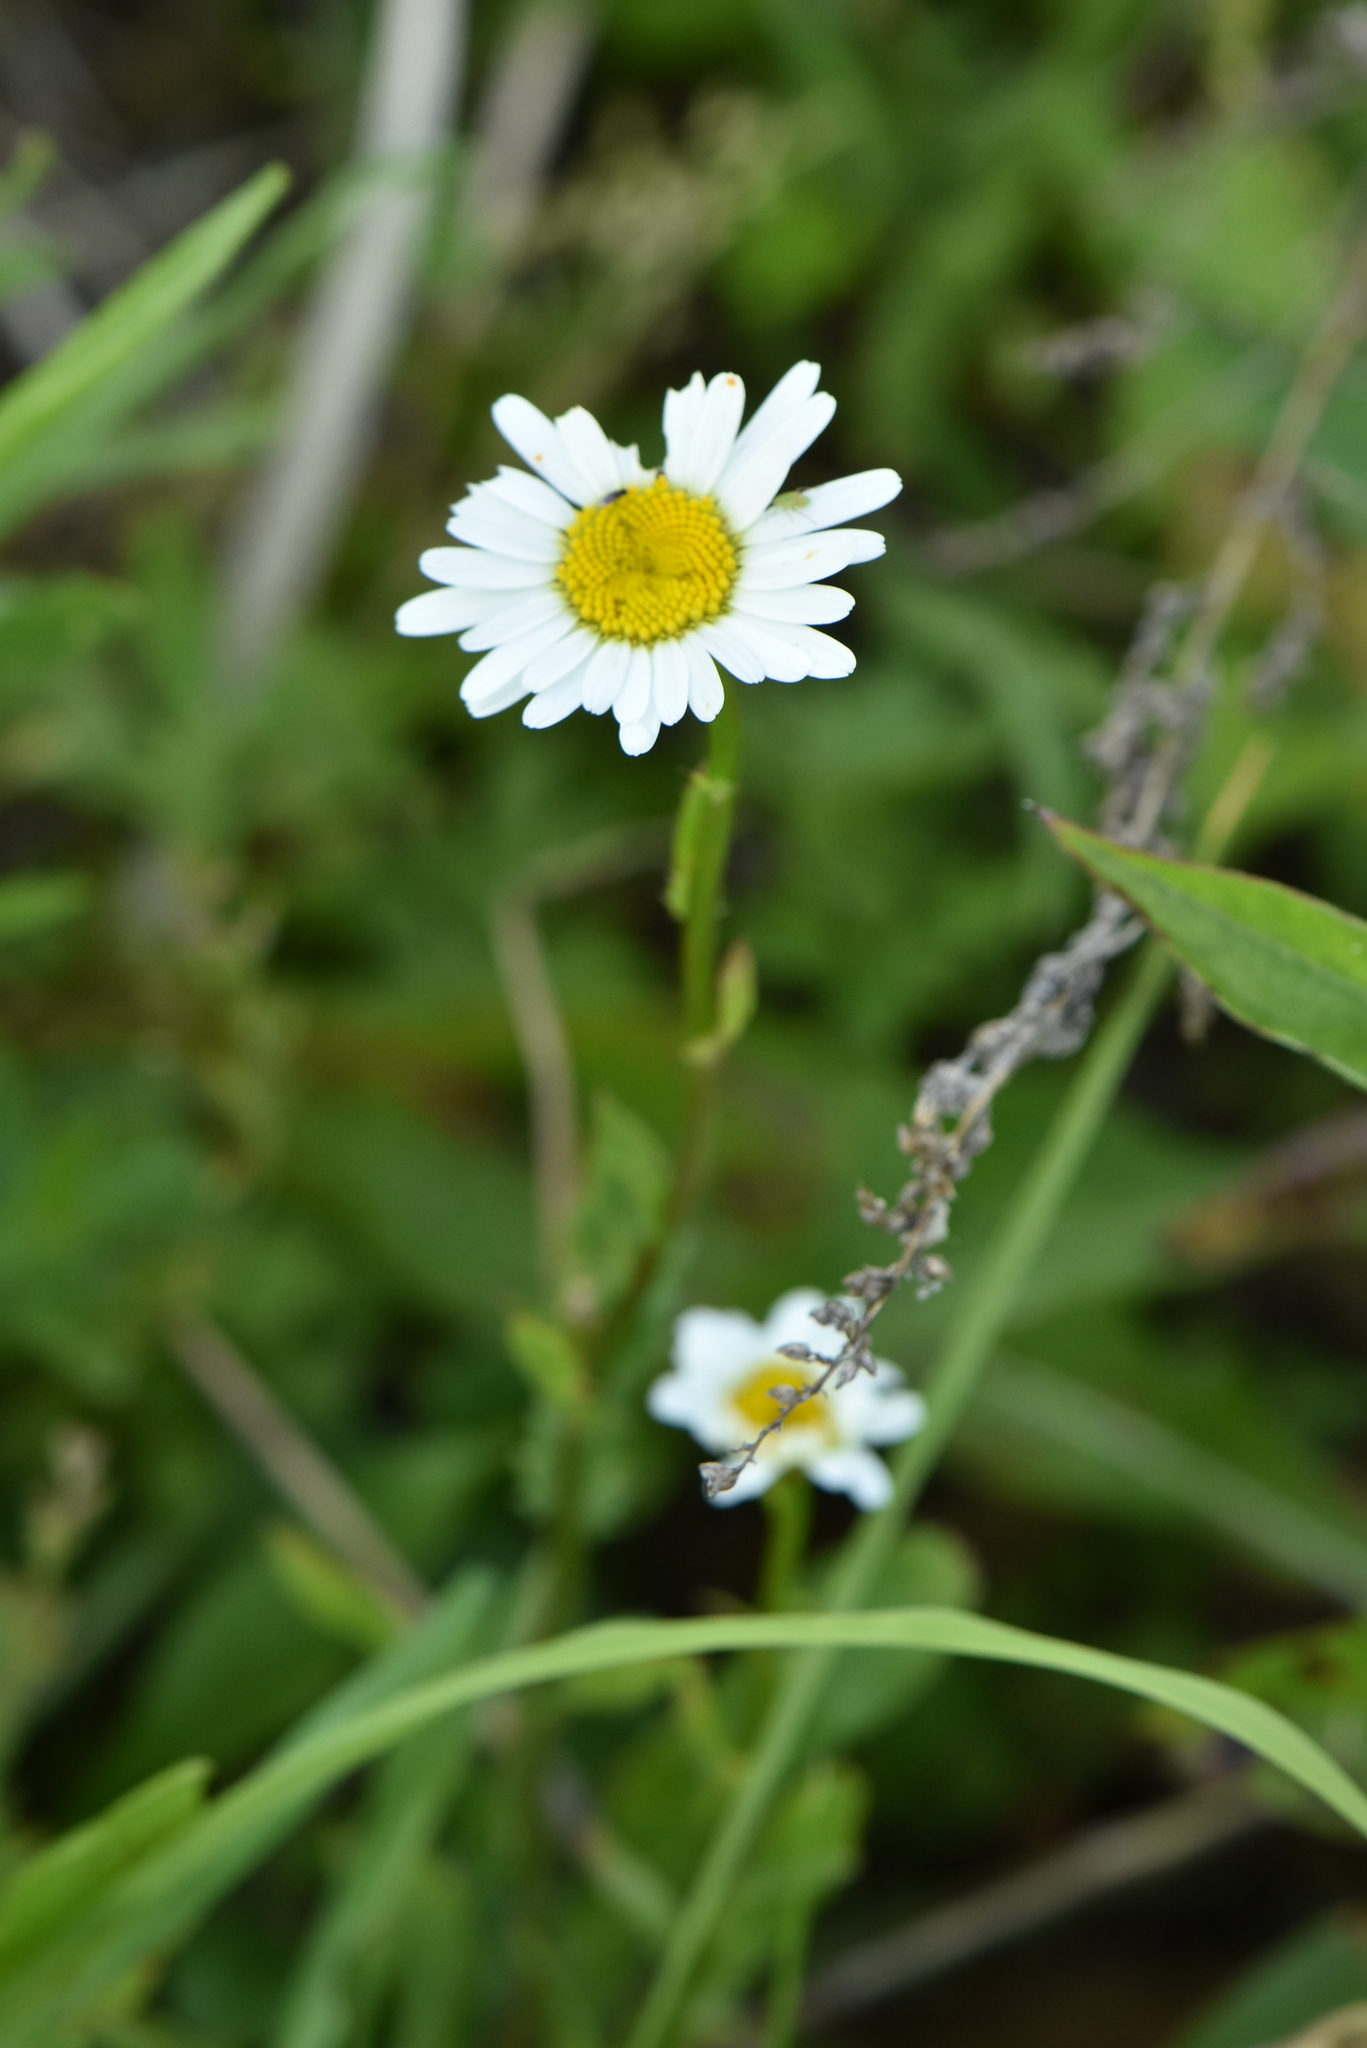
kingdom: Plantae
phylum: Tracheophyta
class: Magnoliopsida
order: Asterales
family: Asteraceae
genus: Leucanthemum
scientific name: Leucanthemum vulgare
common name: Oxeye daisy
